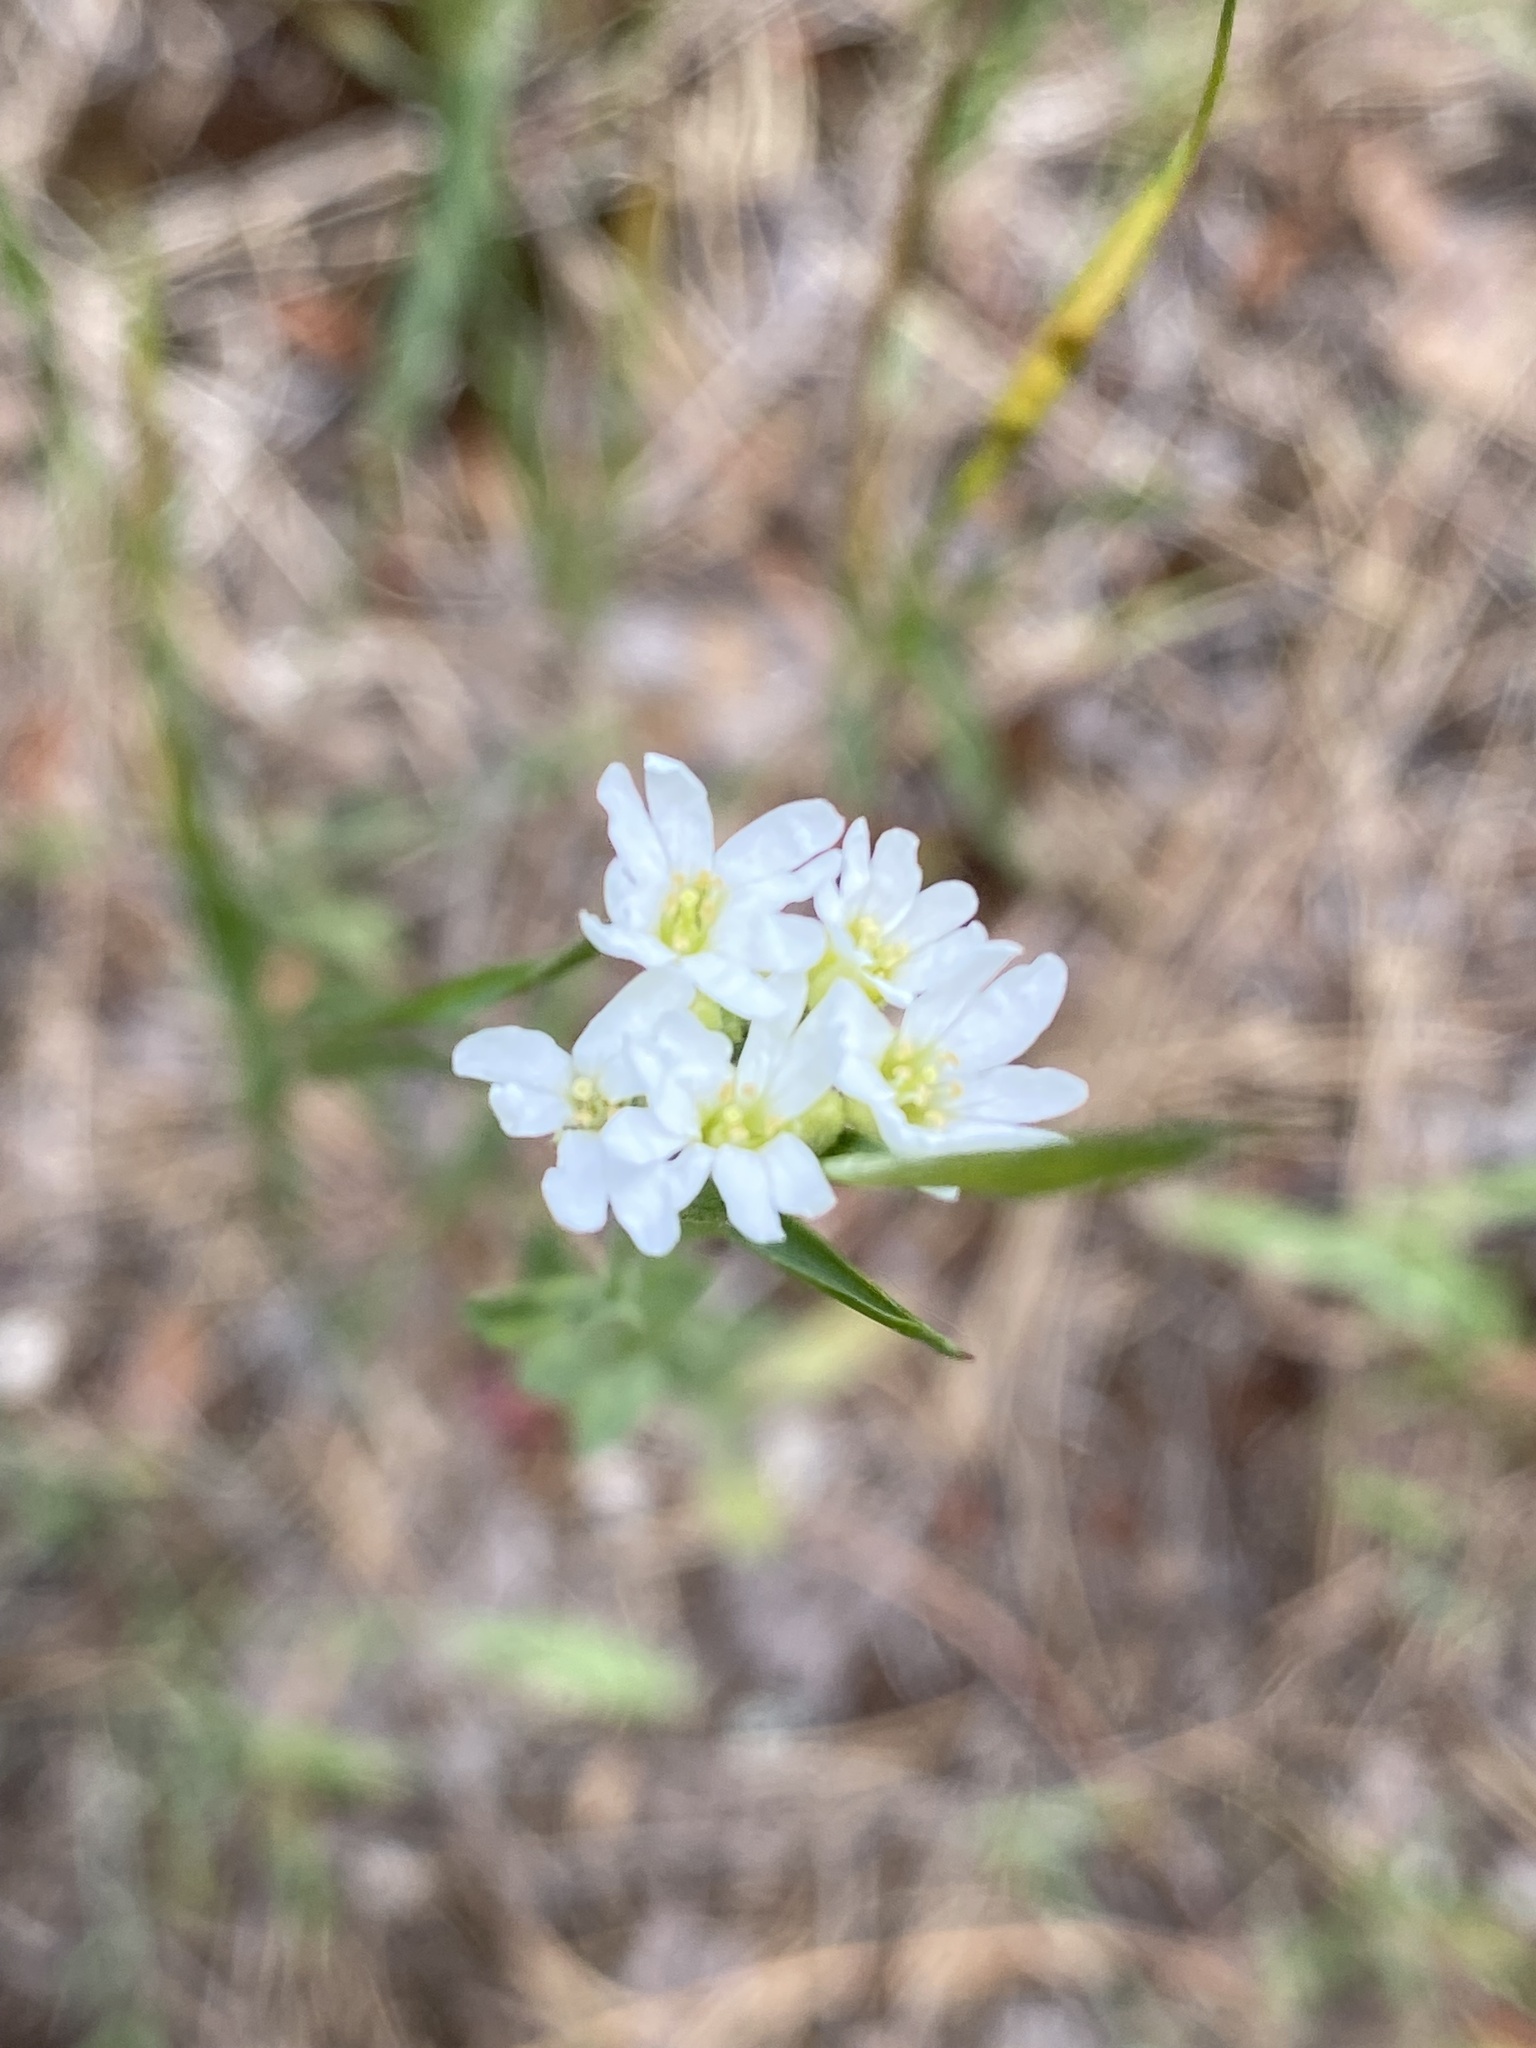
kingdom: Plantae
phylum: Tracheophyta
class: Magnoliopsida
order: Brassicales
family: Brassicaceae
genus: Berteroa
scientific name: Berteroa incana
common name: Hoary alison
